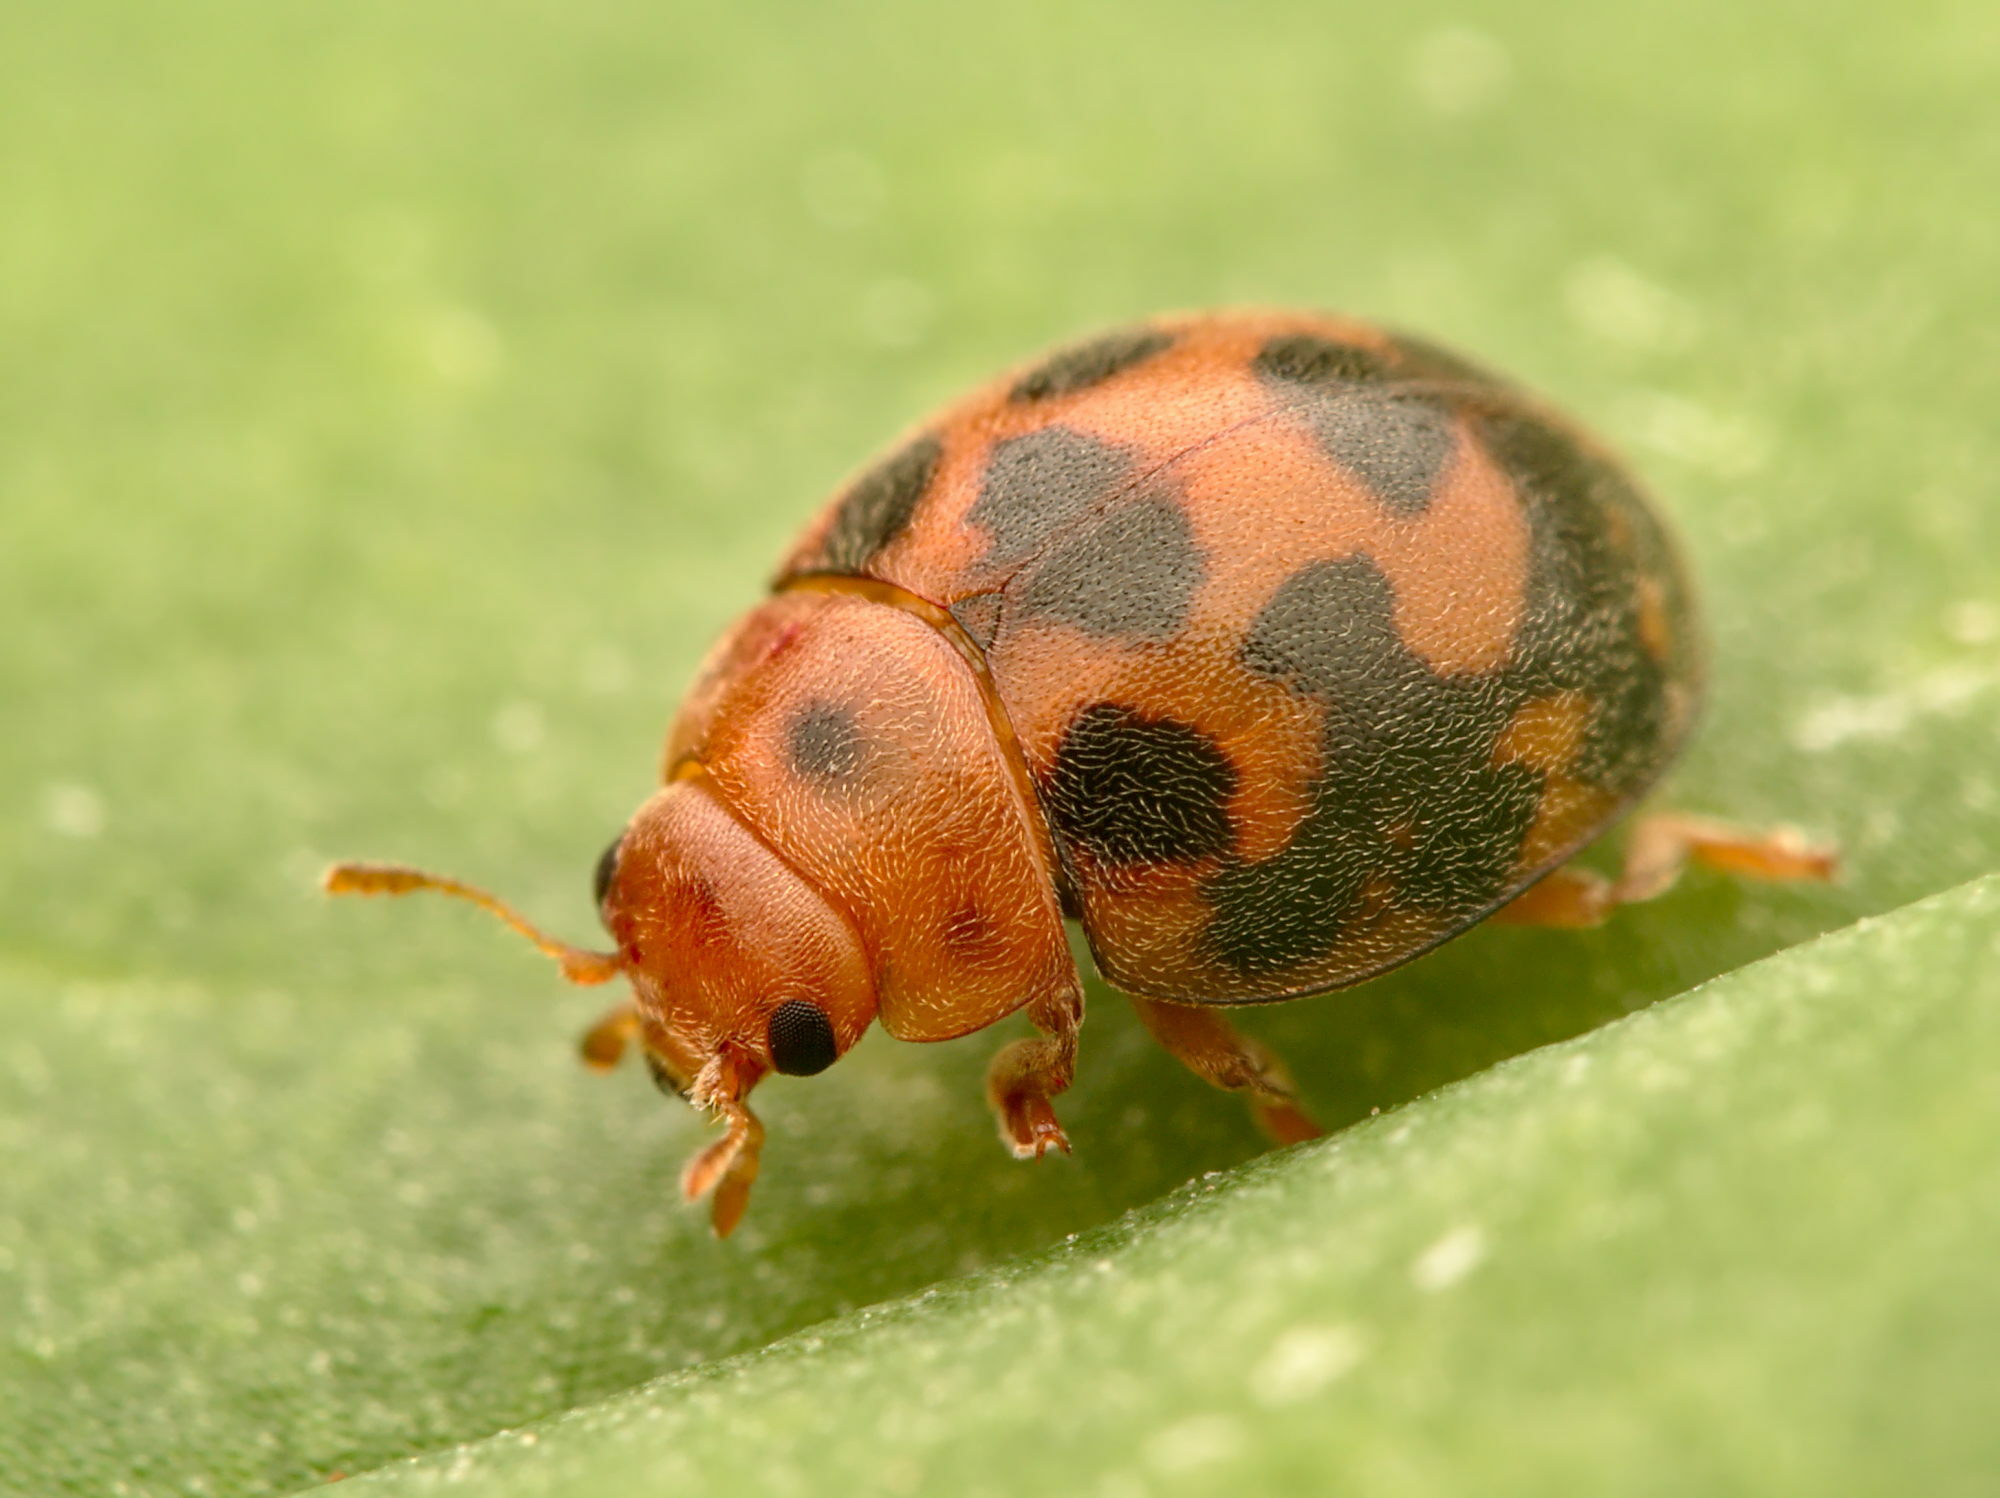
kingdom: Animalia
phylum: Arthropoda
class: Insecta
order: Coleoptera
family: Coccinellidae
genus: Subcoccinella
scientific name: Subcoccinella vigintiquatuorpunctata
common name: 24-spot ladybird
